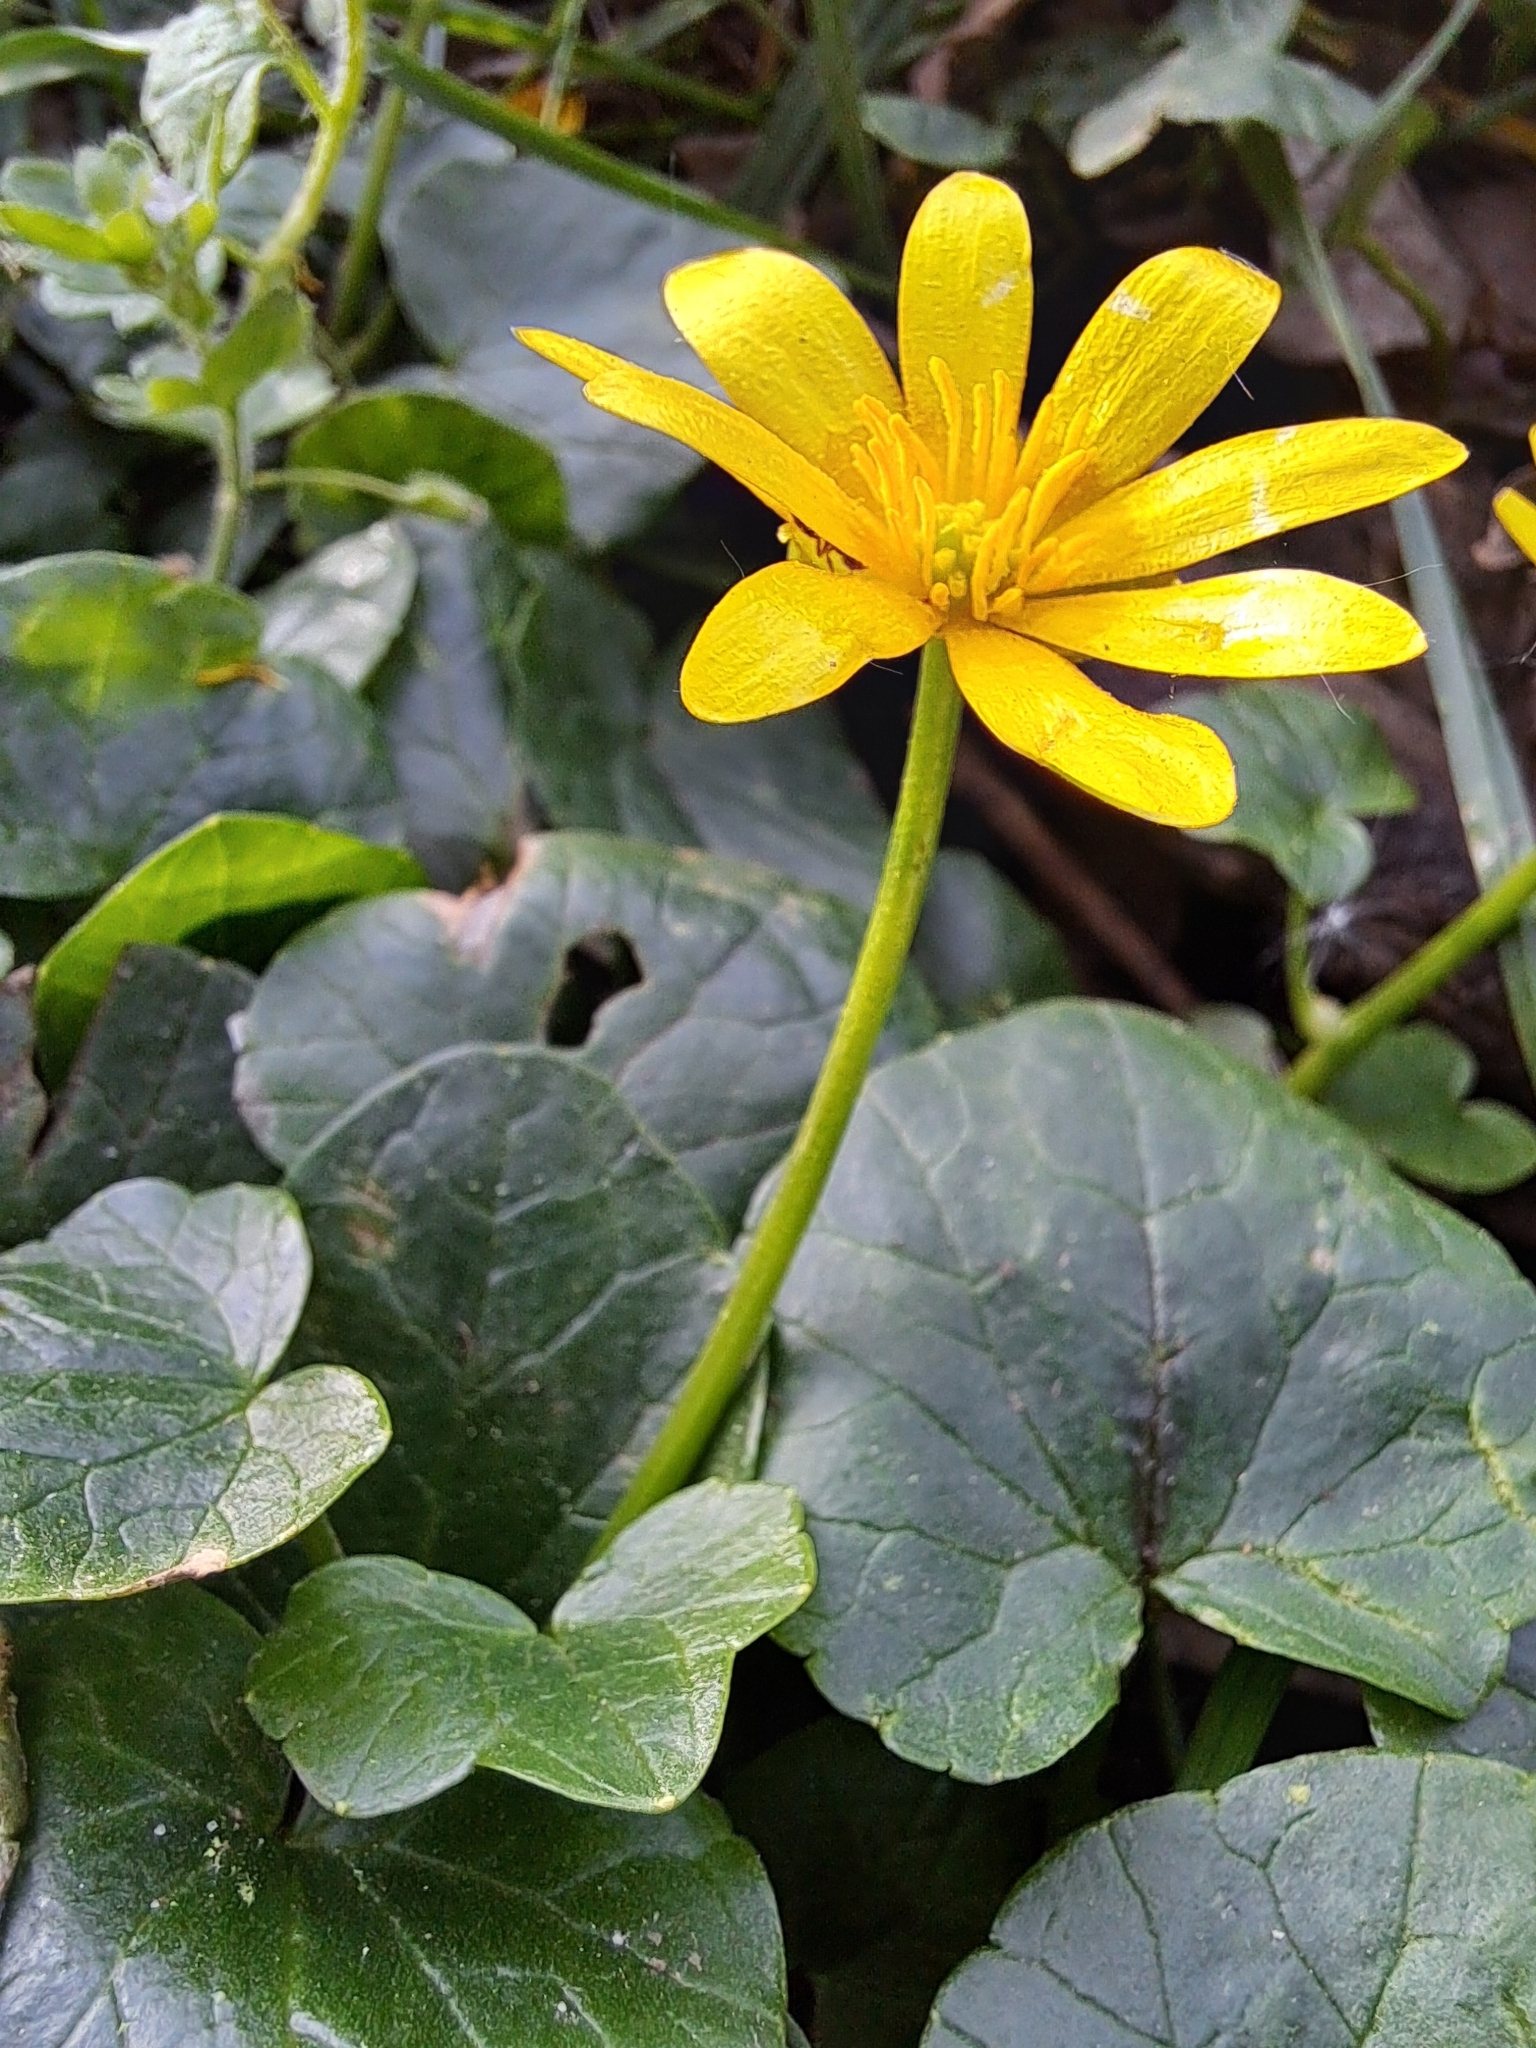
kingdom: Plantae
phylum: Tracheophyta
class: Magnoliopsida
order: Ranunculales
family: Ranunculaceae
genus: Ficaria
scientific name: Ficaria verna
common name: Lesser celandine
